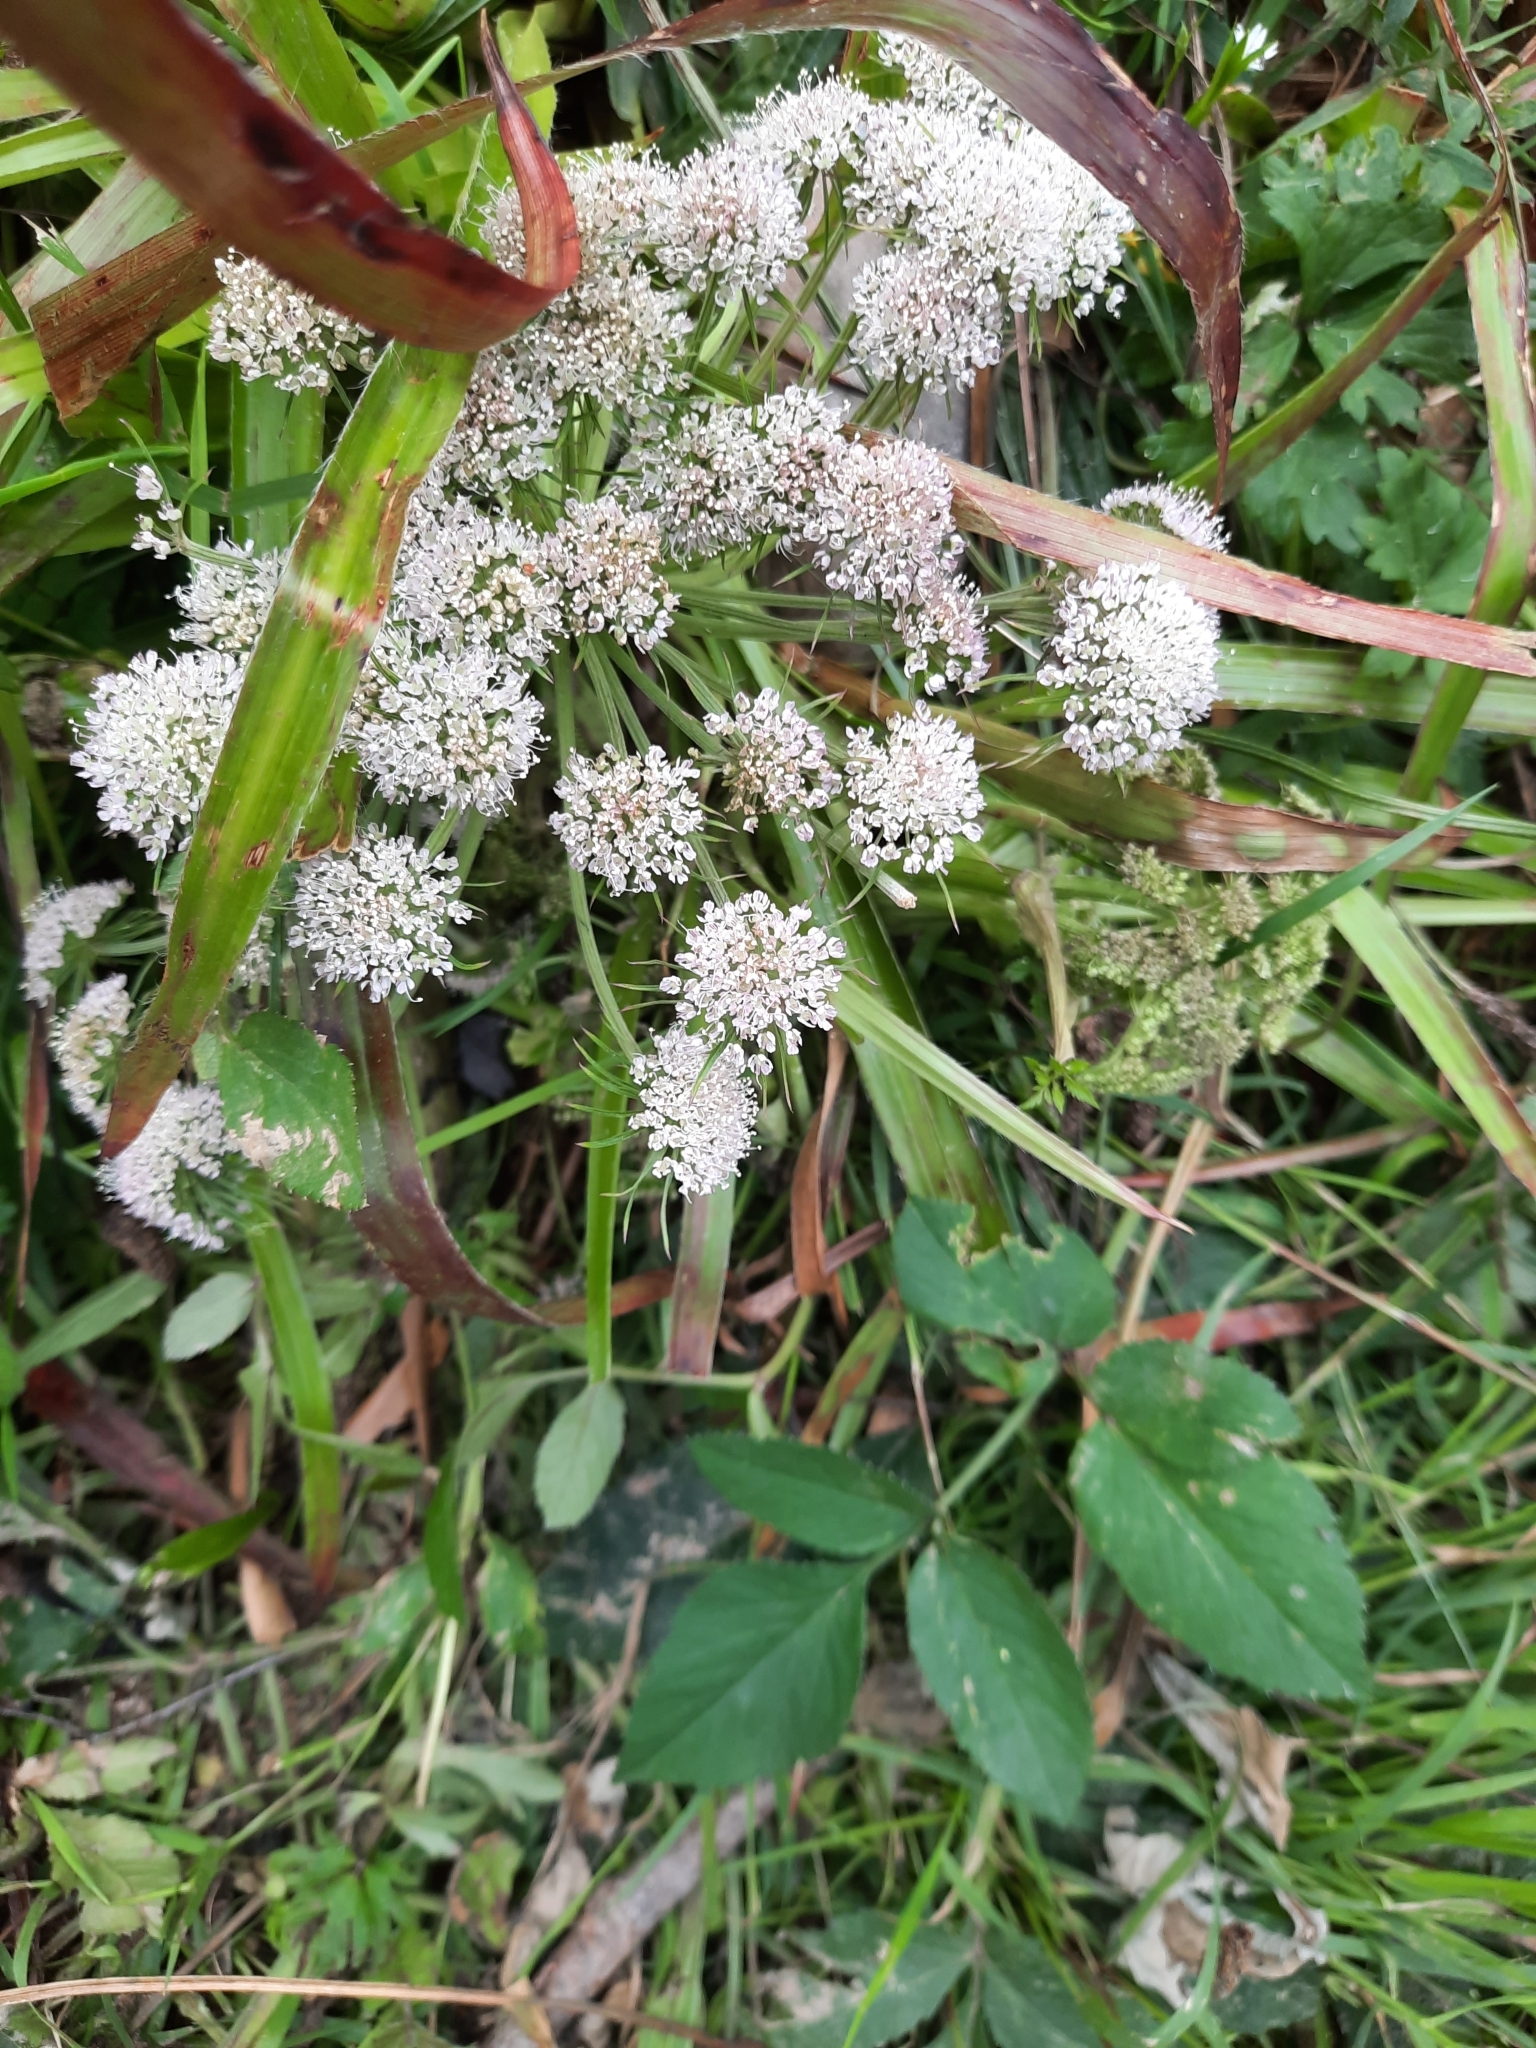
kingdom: Plantae
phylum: Tracheophyta
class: Magnoliopsida
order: Apiales
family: Apiaceae
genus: Angelica
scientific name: Angelica sylvestris
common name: Wild angelica
